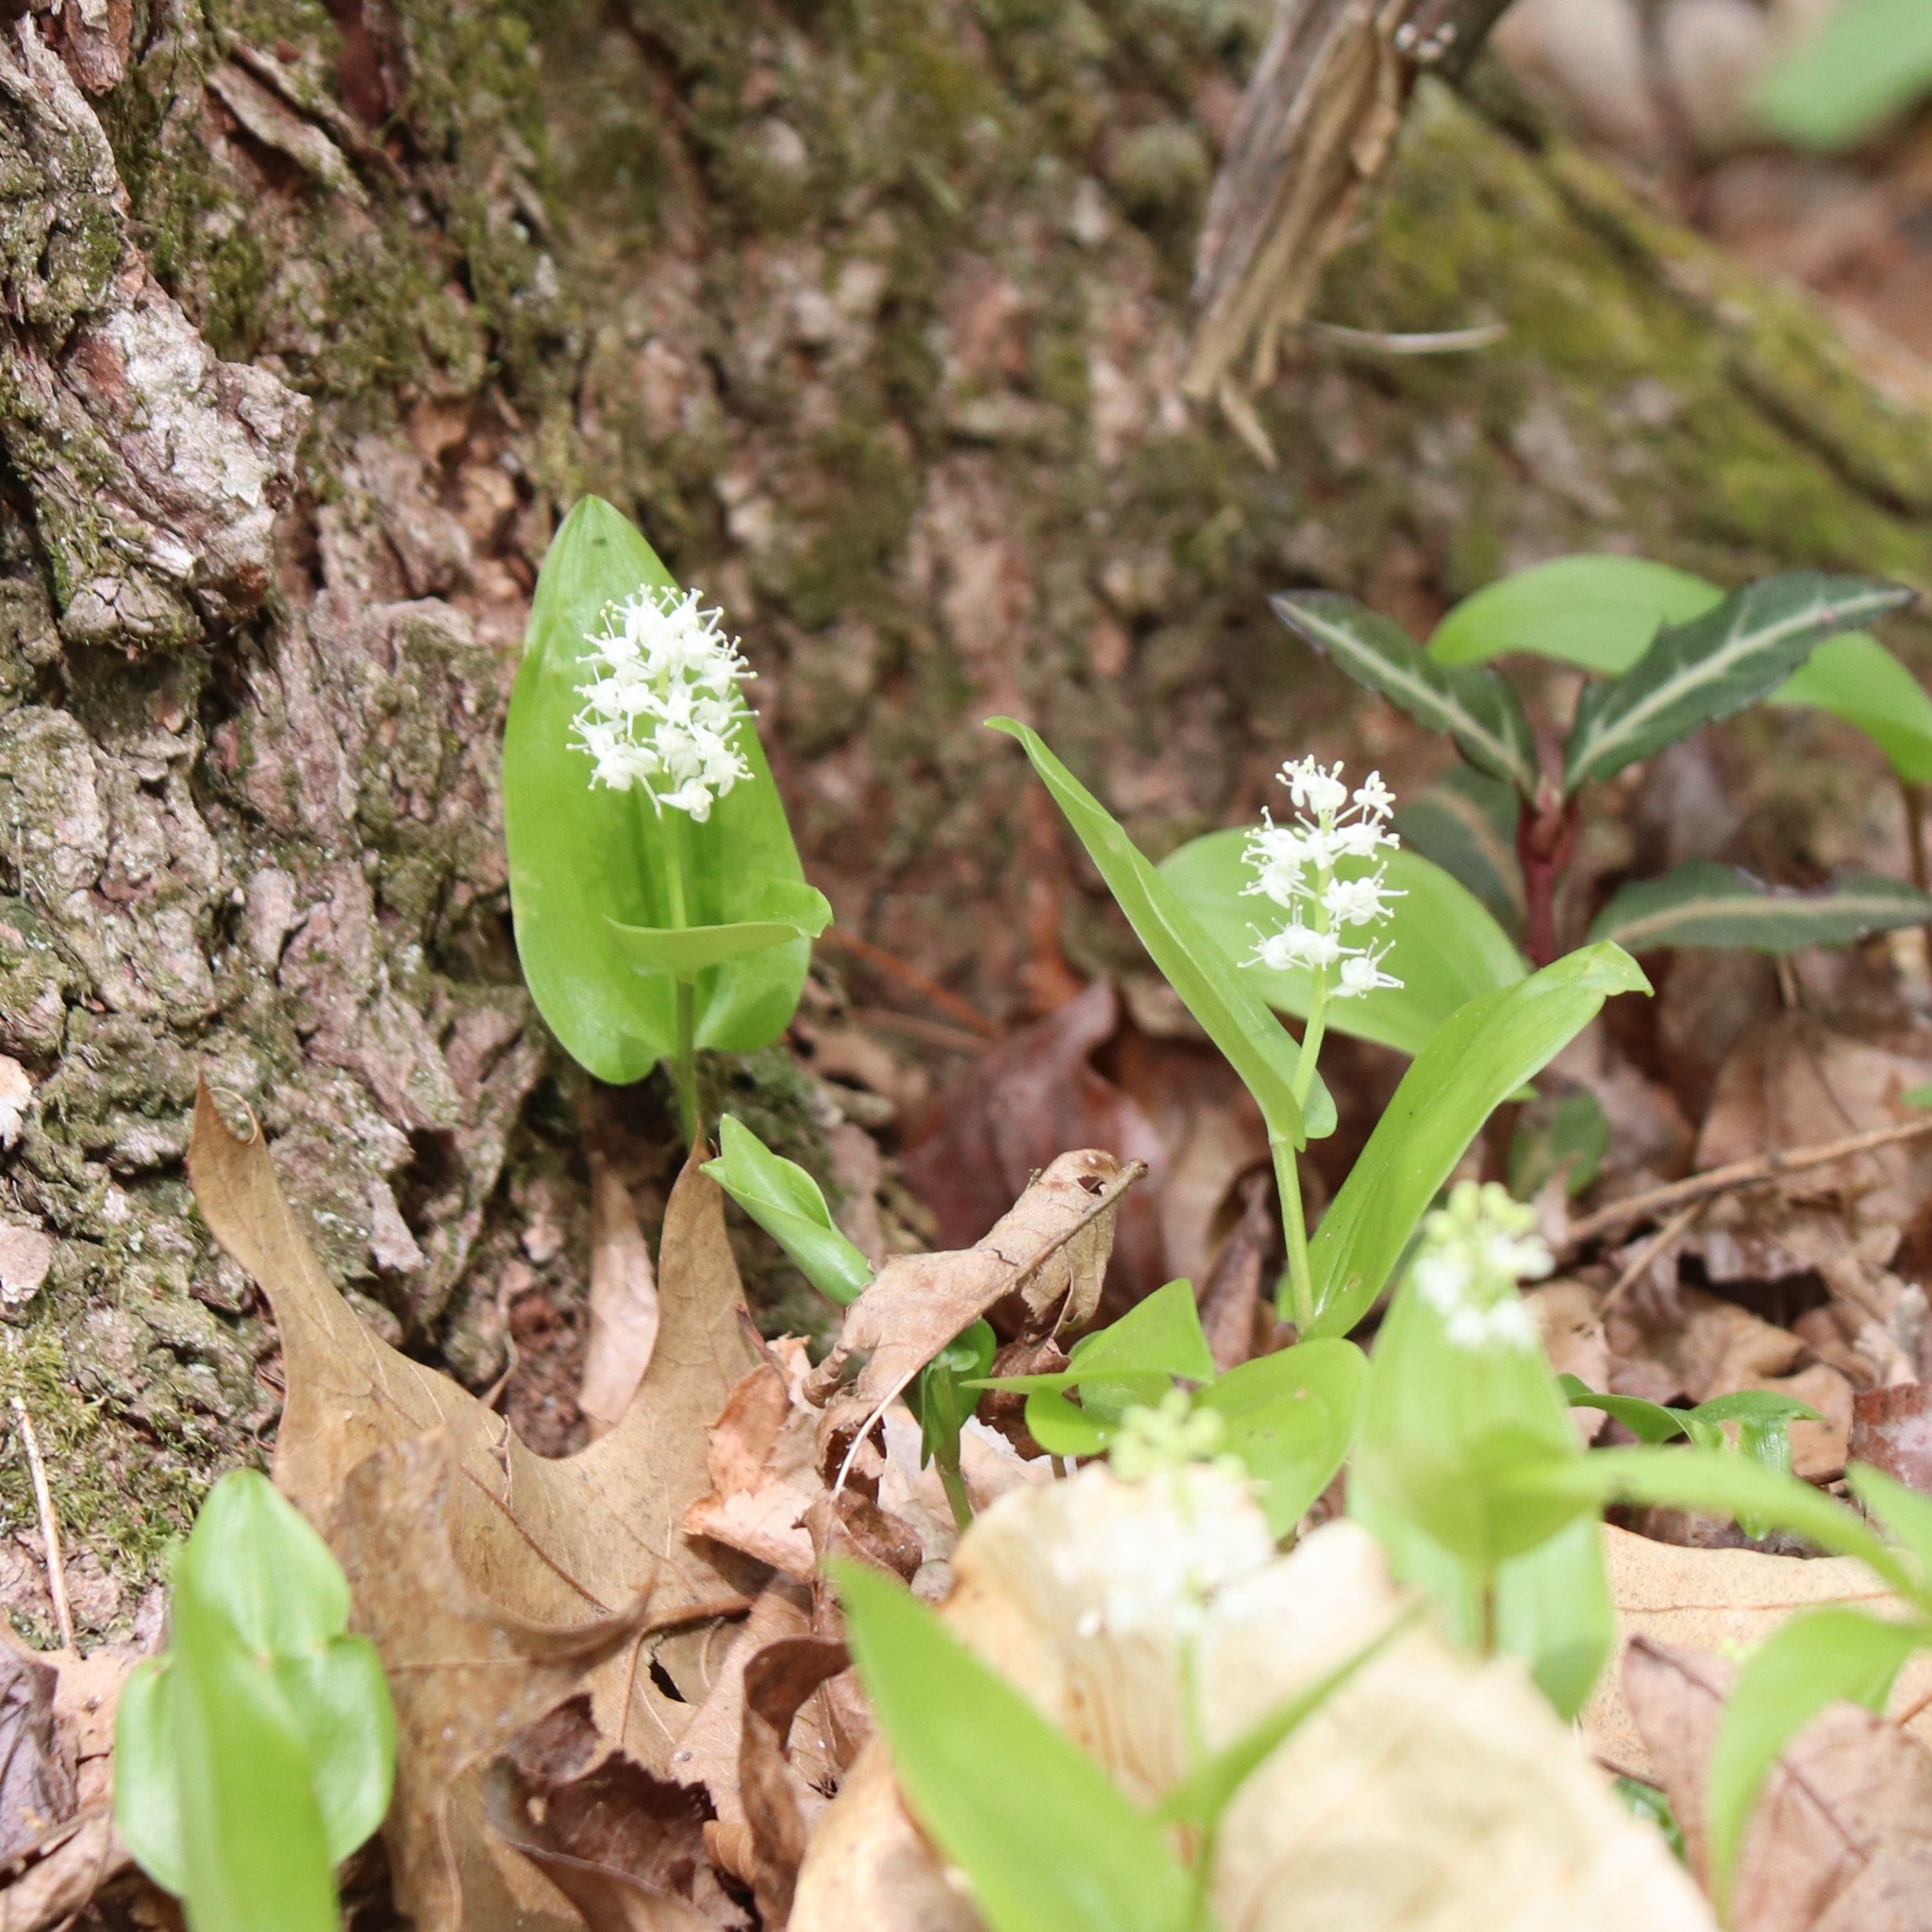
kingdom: Plantae
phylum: Tracheophyta
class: Liliopsida
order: Asparagales
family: Asparagaceae
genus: Maianthemum
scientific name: Maianthemum canadense
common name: False lily-of-the-valley
